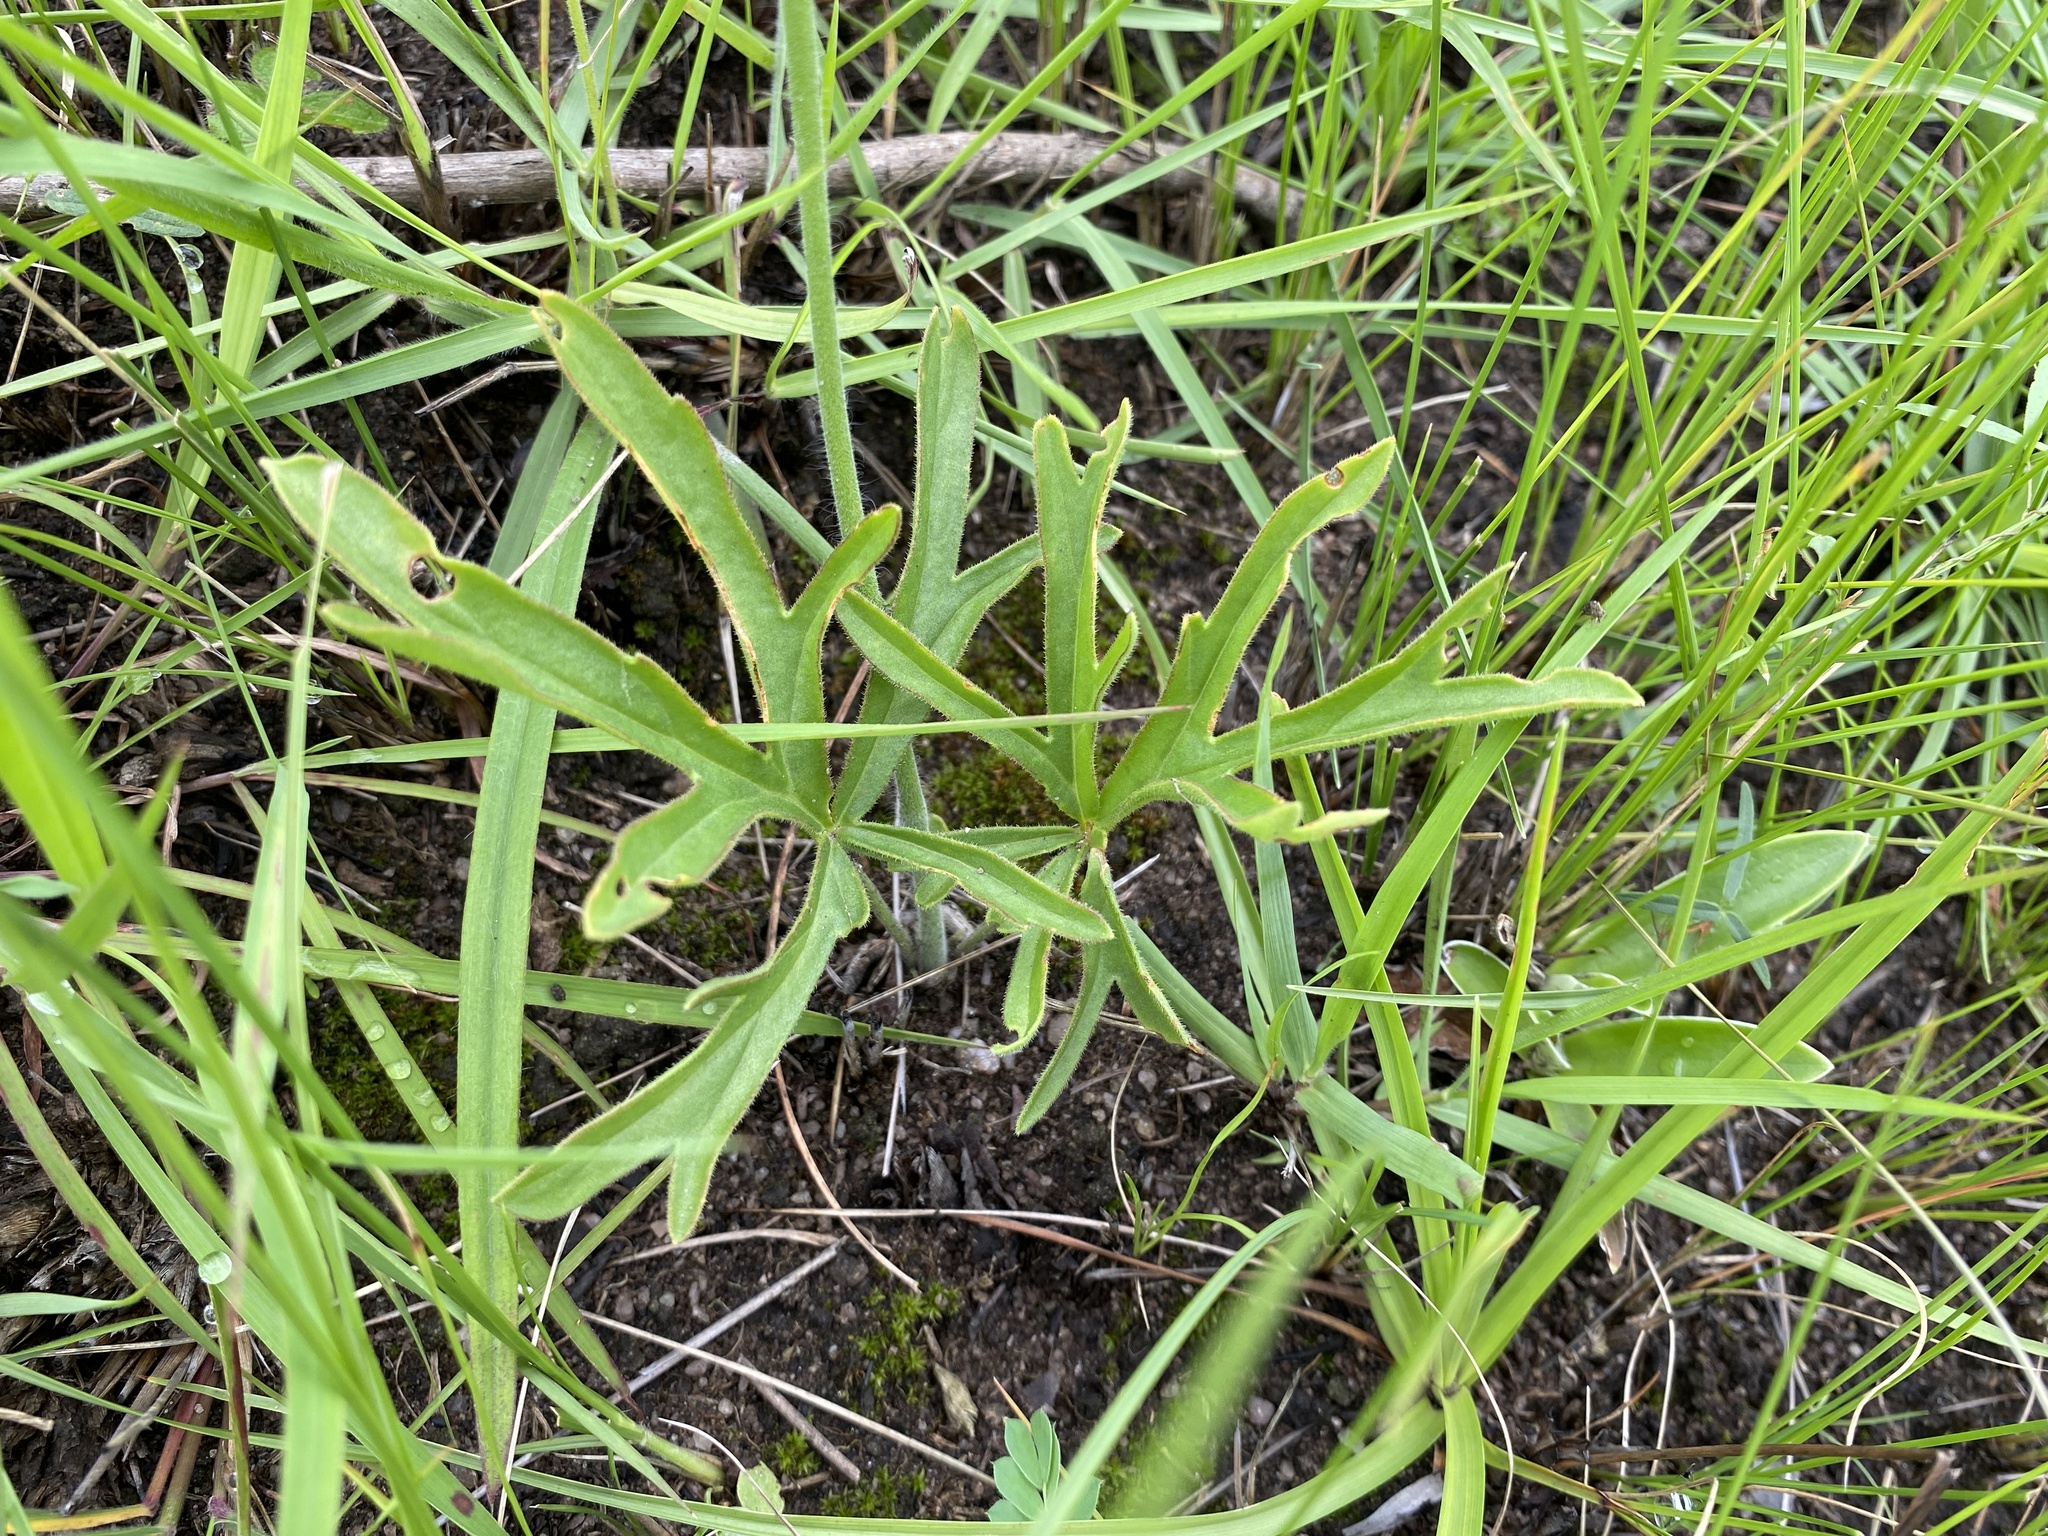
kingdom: Plantae
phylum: Tracheophyta
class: Magnoliopsida
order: Geraniales
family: Geraniaceae
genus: Pelargonium
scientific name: Pelargonium luridum
